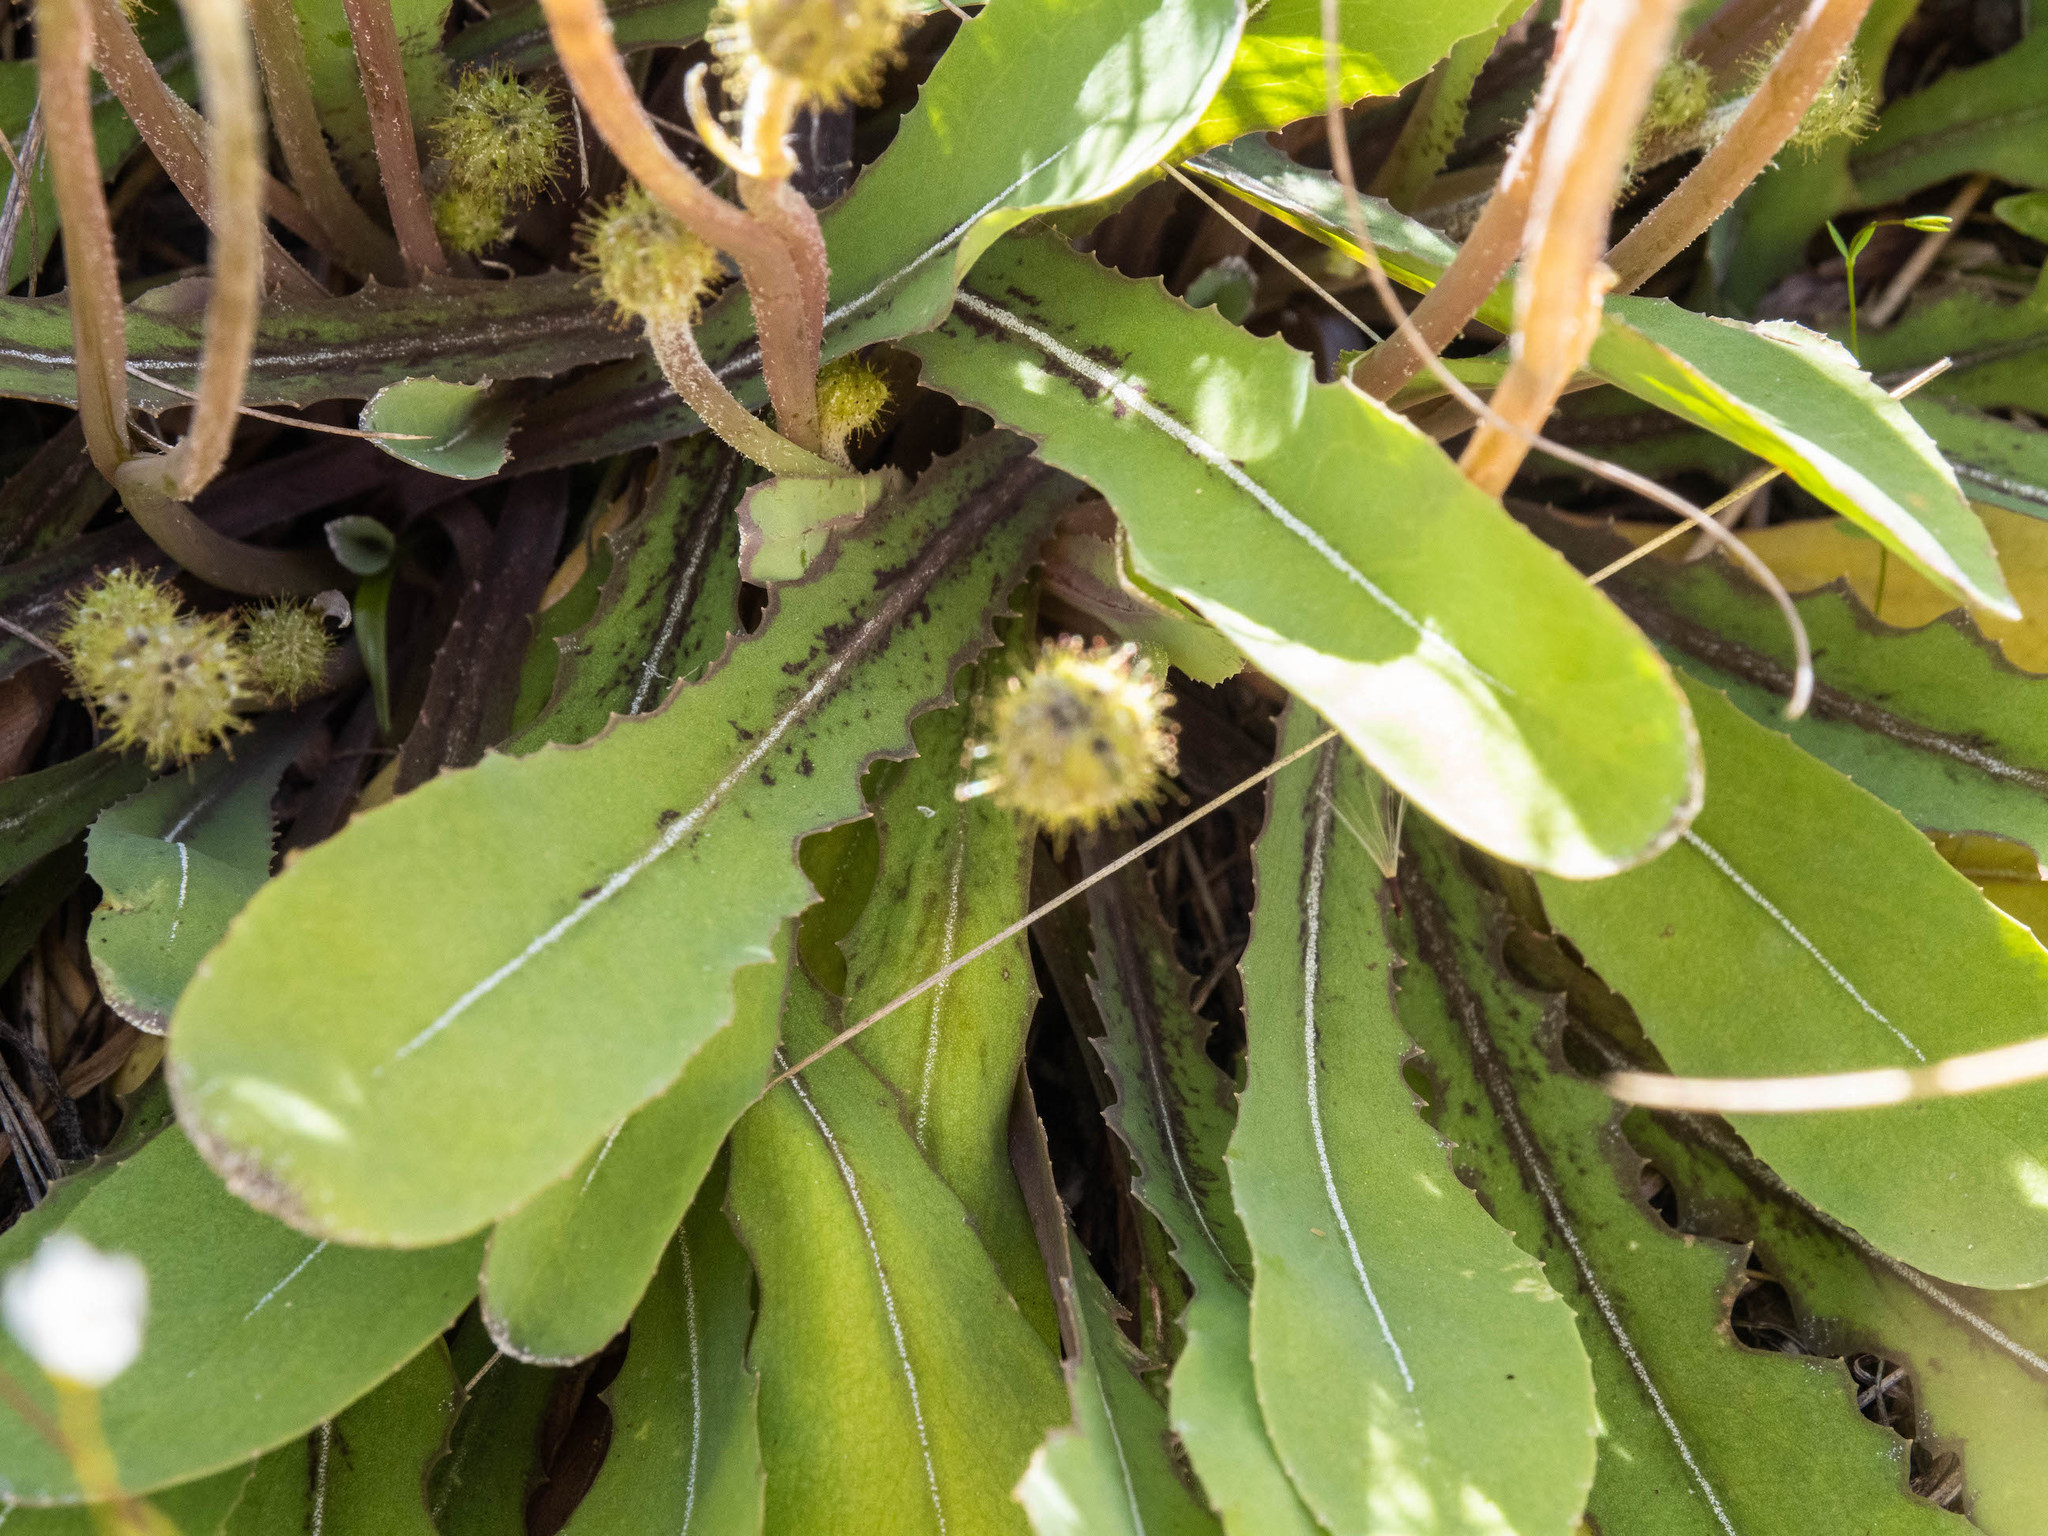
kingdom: Plantae
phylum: Tracheophyta
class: Magnoliopsida
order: Asterales
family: Asteraceae
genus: Sonchus
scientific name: Sonchus novae-zelandiae
